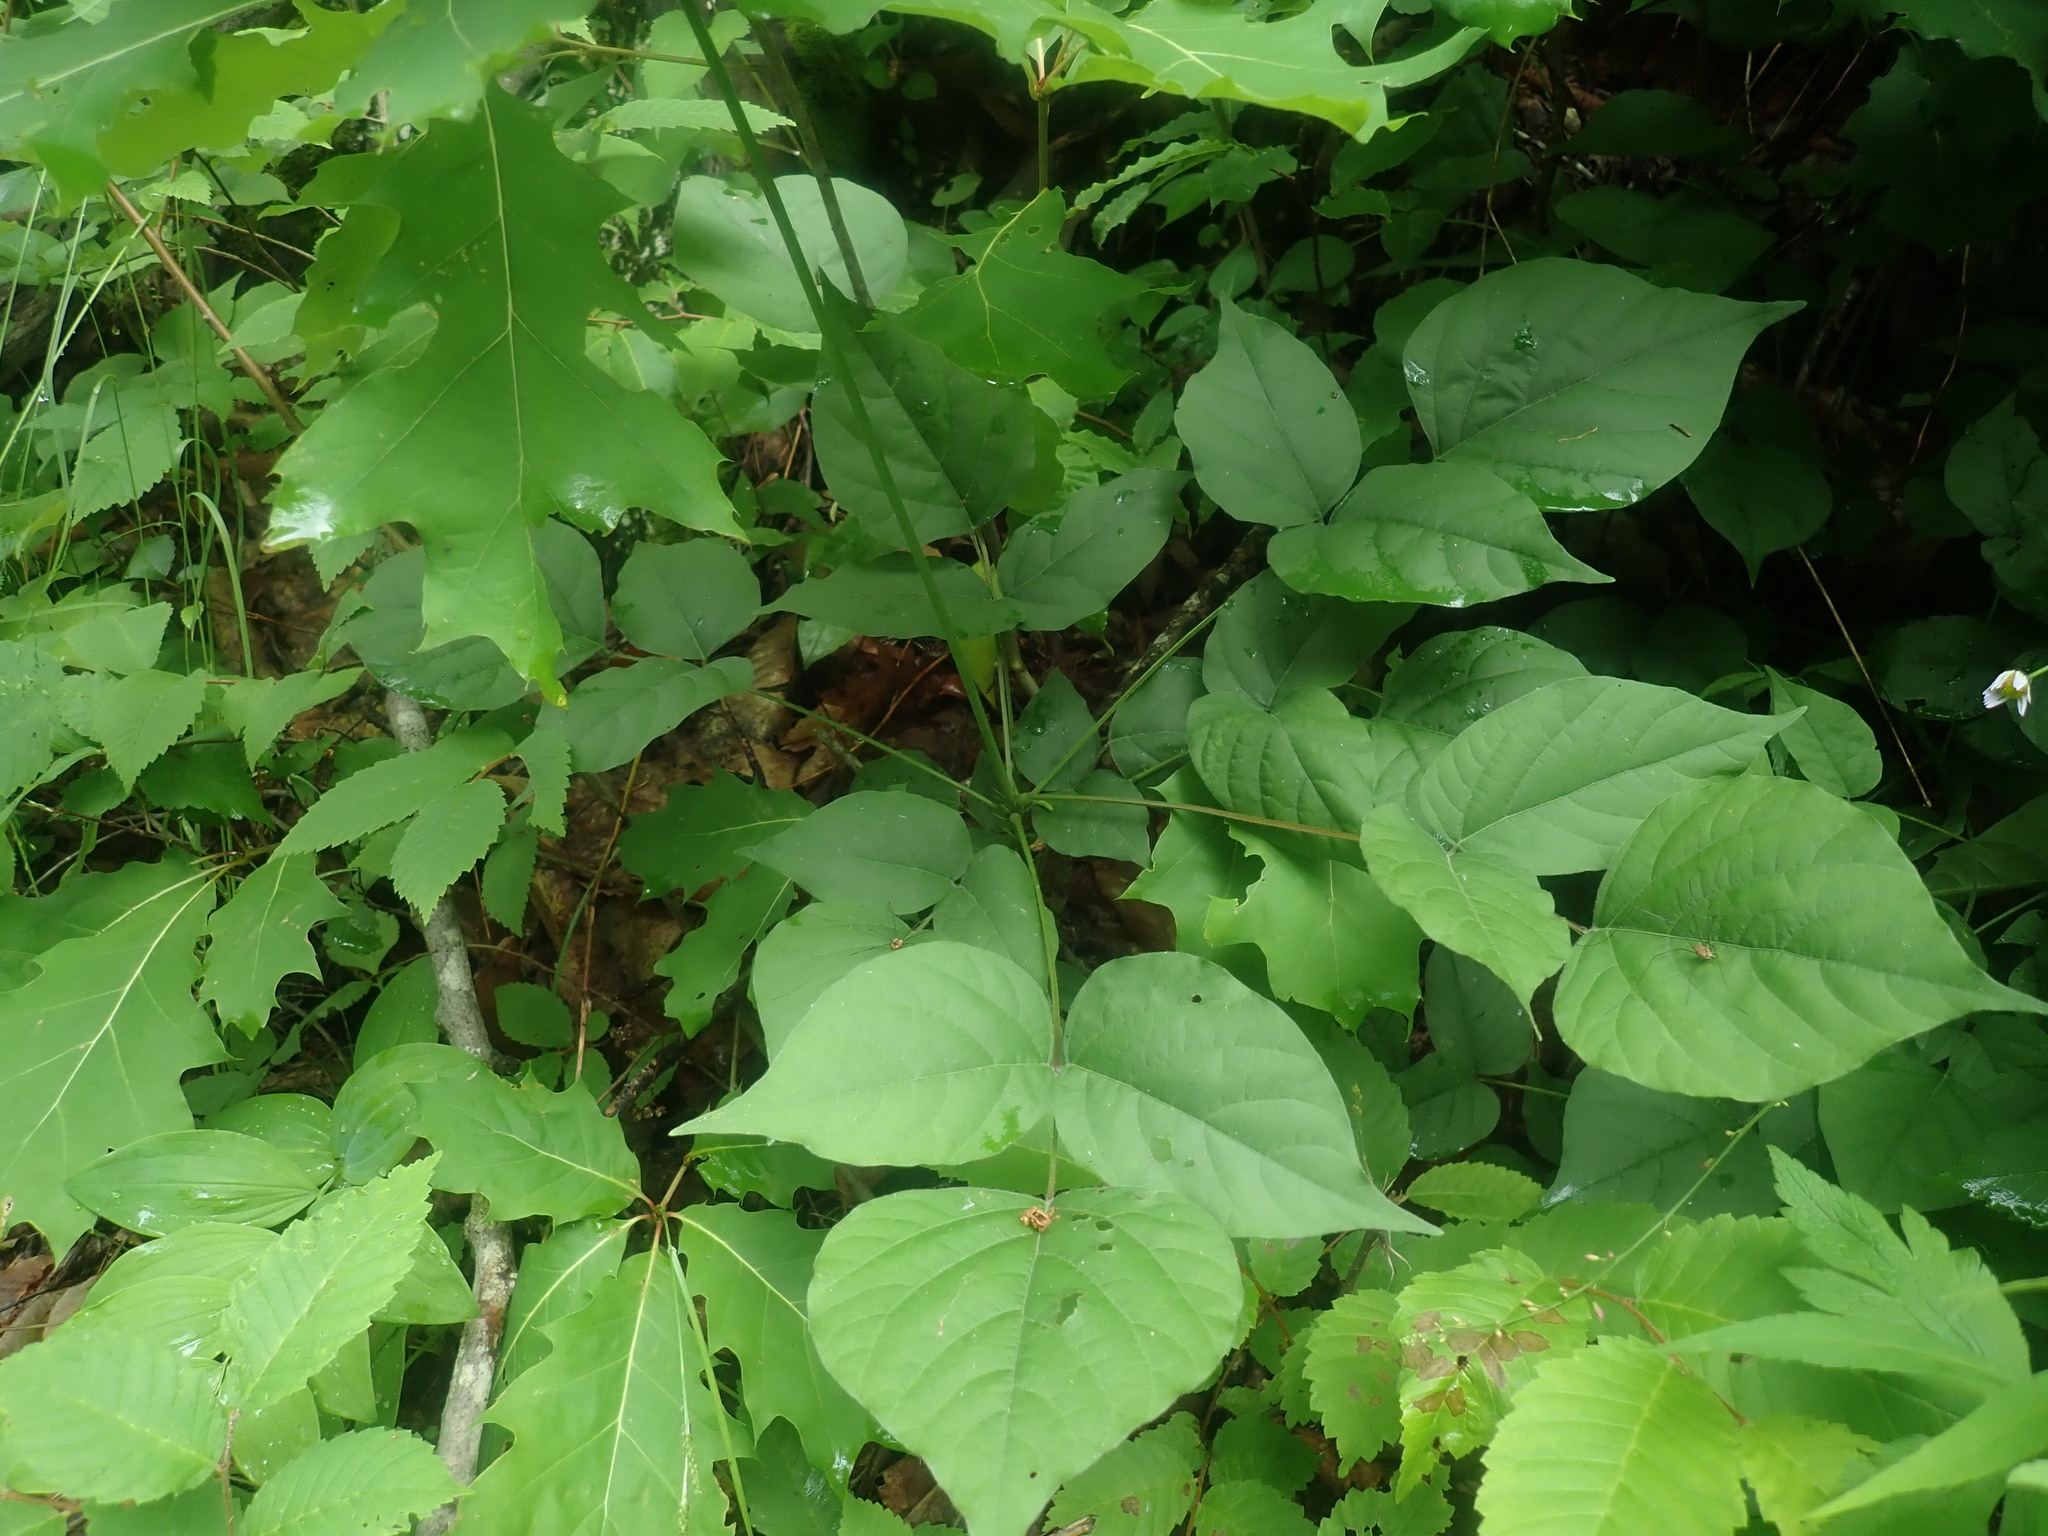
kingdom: Plantae
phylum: Tracheophyta
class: Magnoliopsida
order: Fabales
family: Fabaceae
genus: Hylodesmum
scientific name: Hylodesmum glutinosum
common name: Clustered-leaved tick-trefoil
